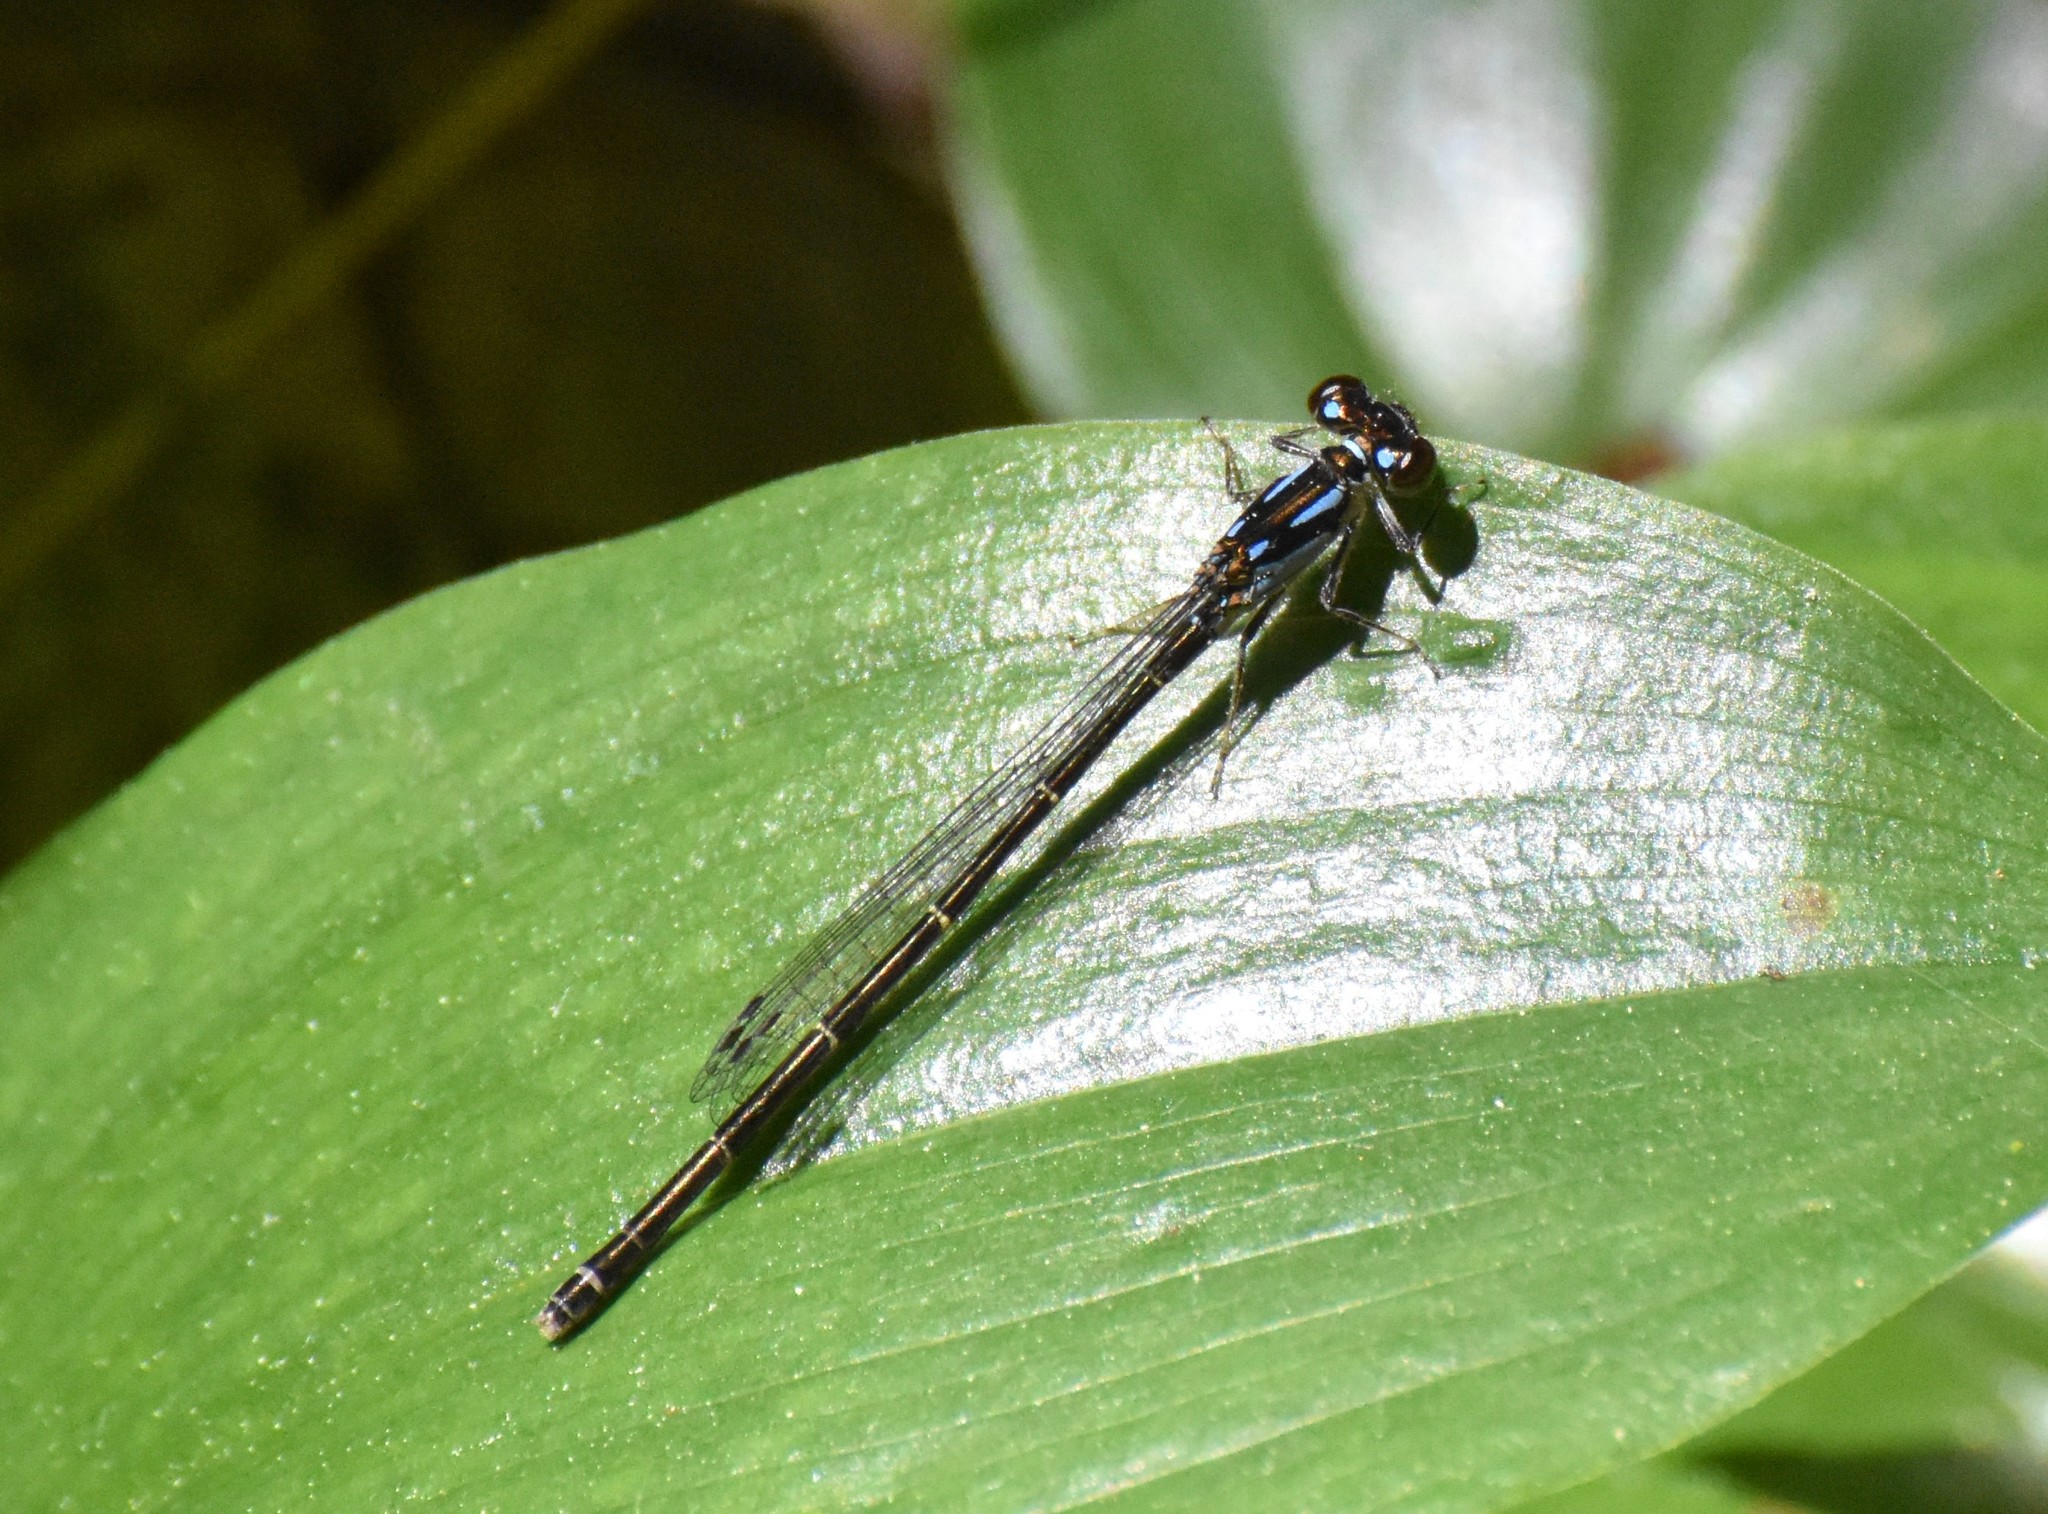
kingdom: Animalia
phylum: Arthropoda
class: Insecta
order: Odonata
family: Coenagrionidae
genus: Ischnura
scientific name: Ischnura posita
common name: Fragile forktail
